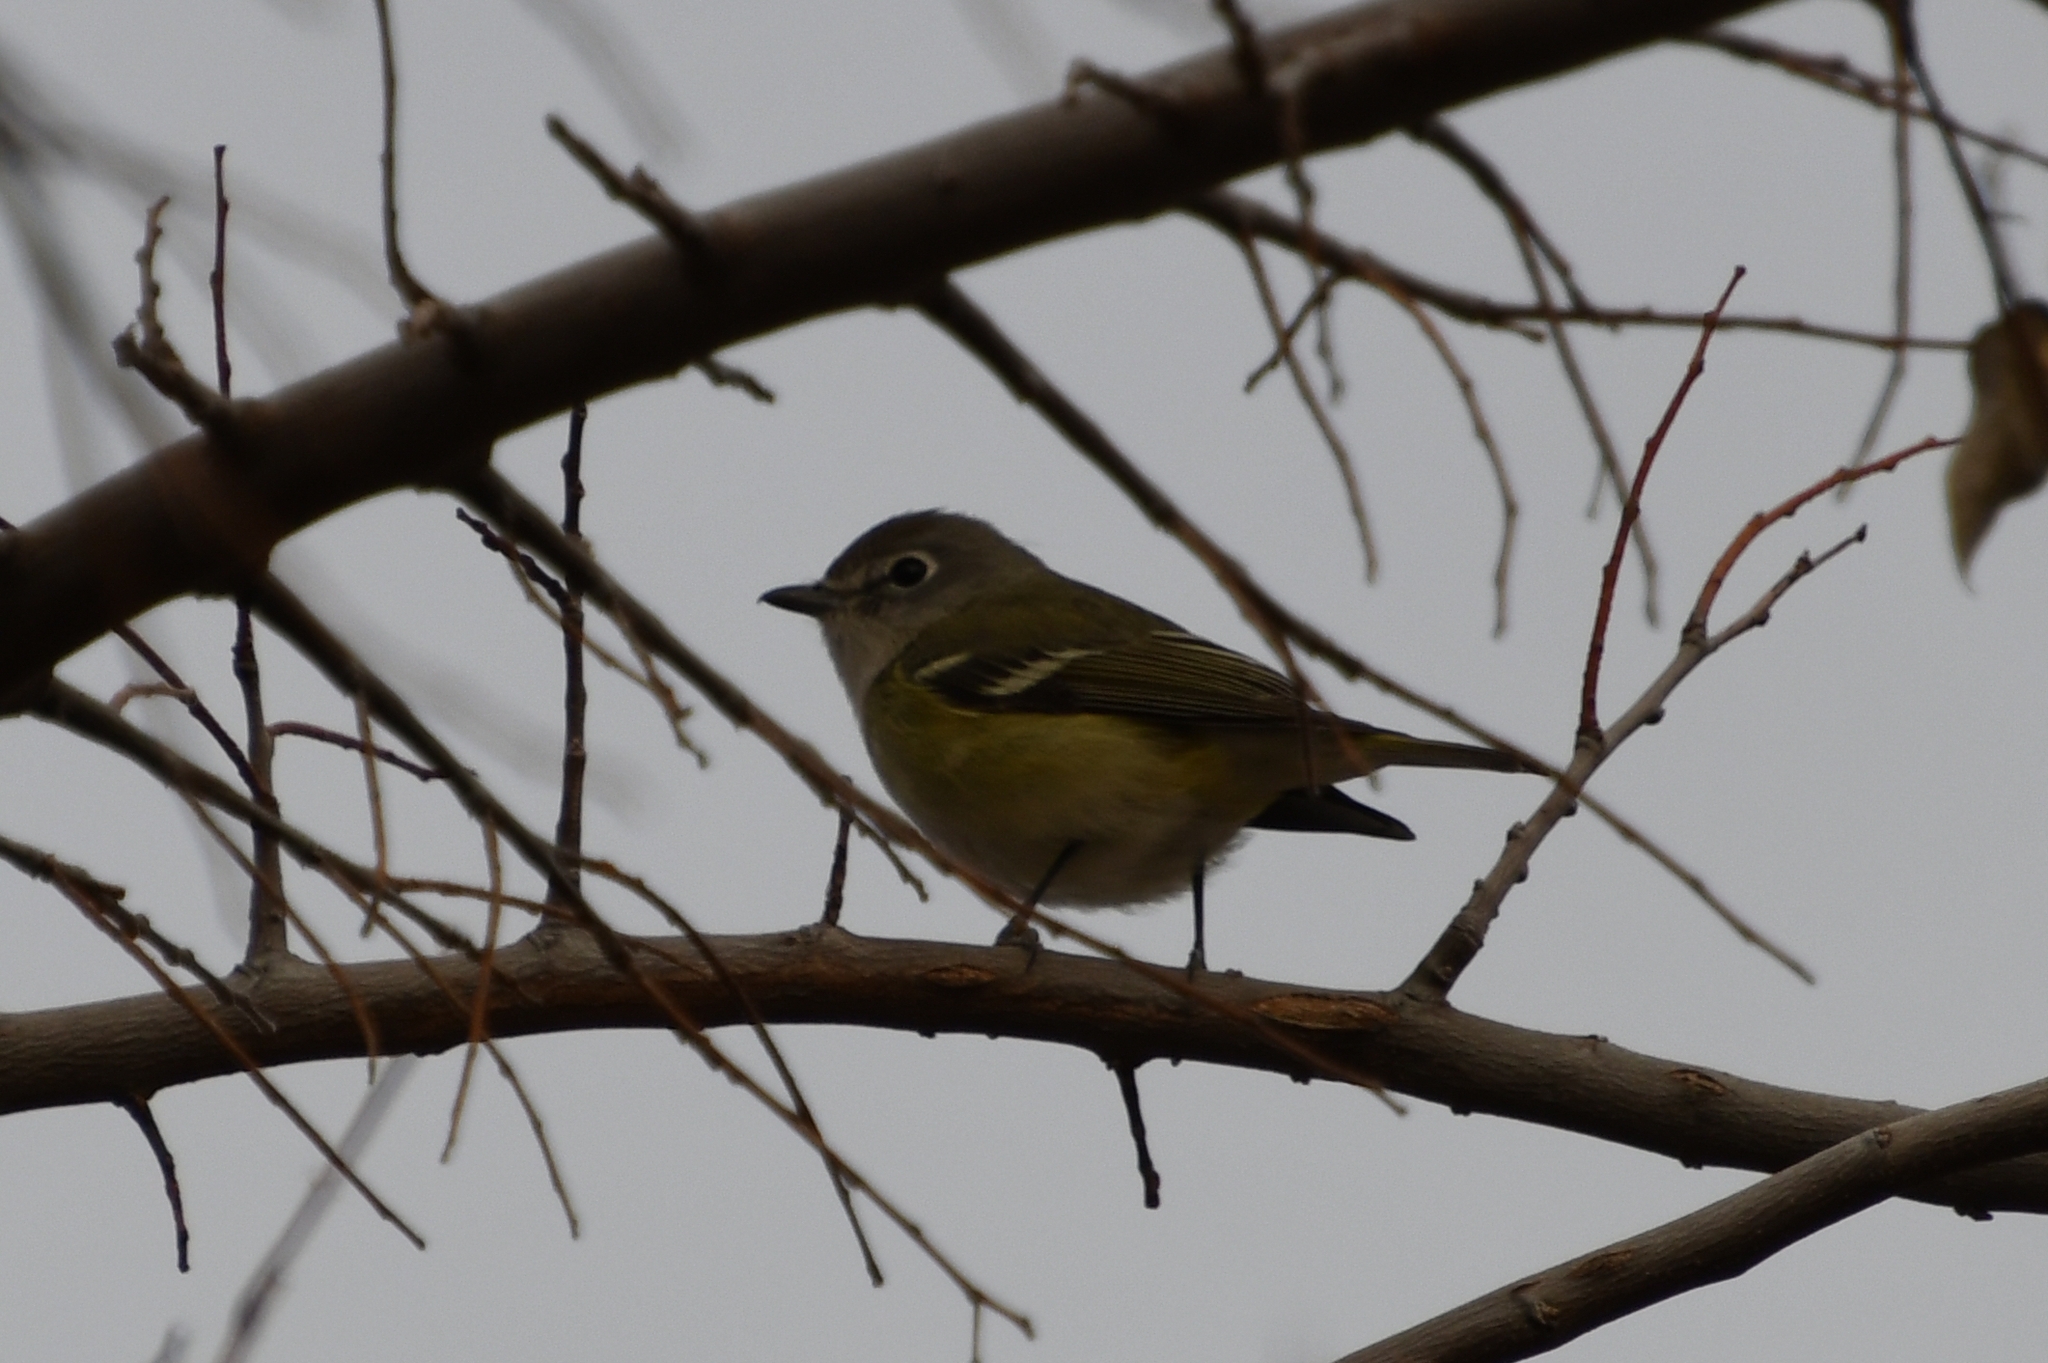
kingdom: Animalia
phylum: Chordata
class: Aves
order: Passeriformes
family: Vireonidae
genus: Vireo
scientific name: Vireo cassinii
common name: Cassin's vireo
